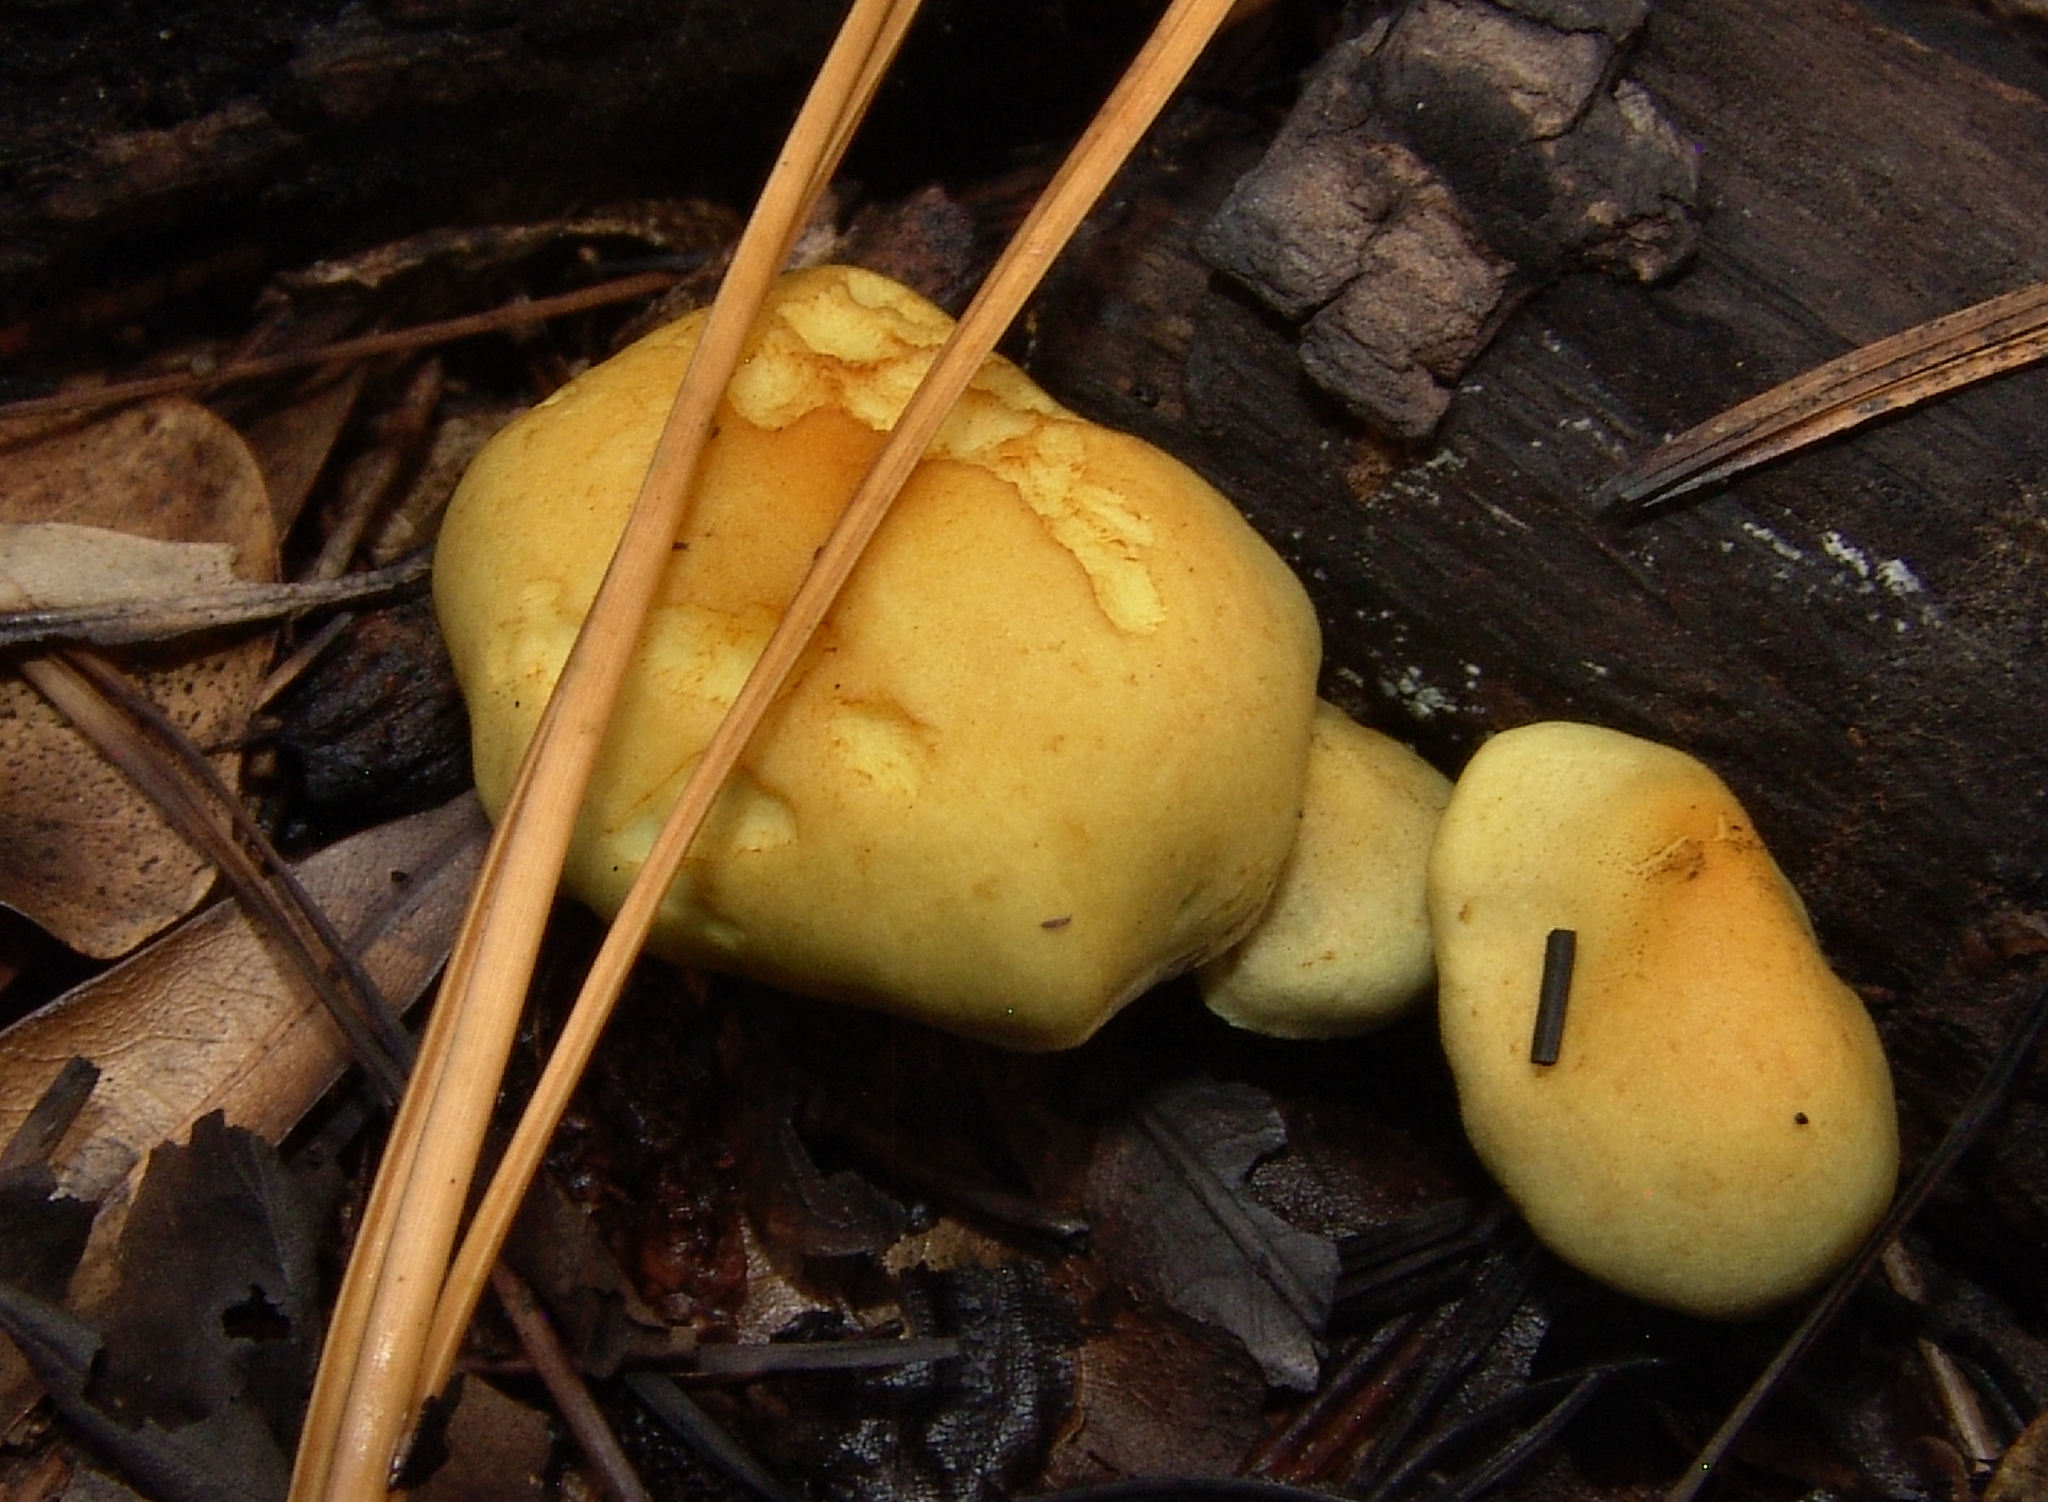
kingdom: Fungi
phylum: Basidiomycota
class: Agaricomycetes
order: Agaricales
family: Strophariaceae
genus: Hypholoma
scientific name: Hypholoma fasciculare
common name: Sulphur tuft
